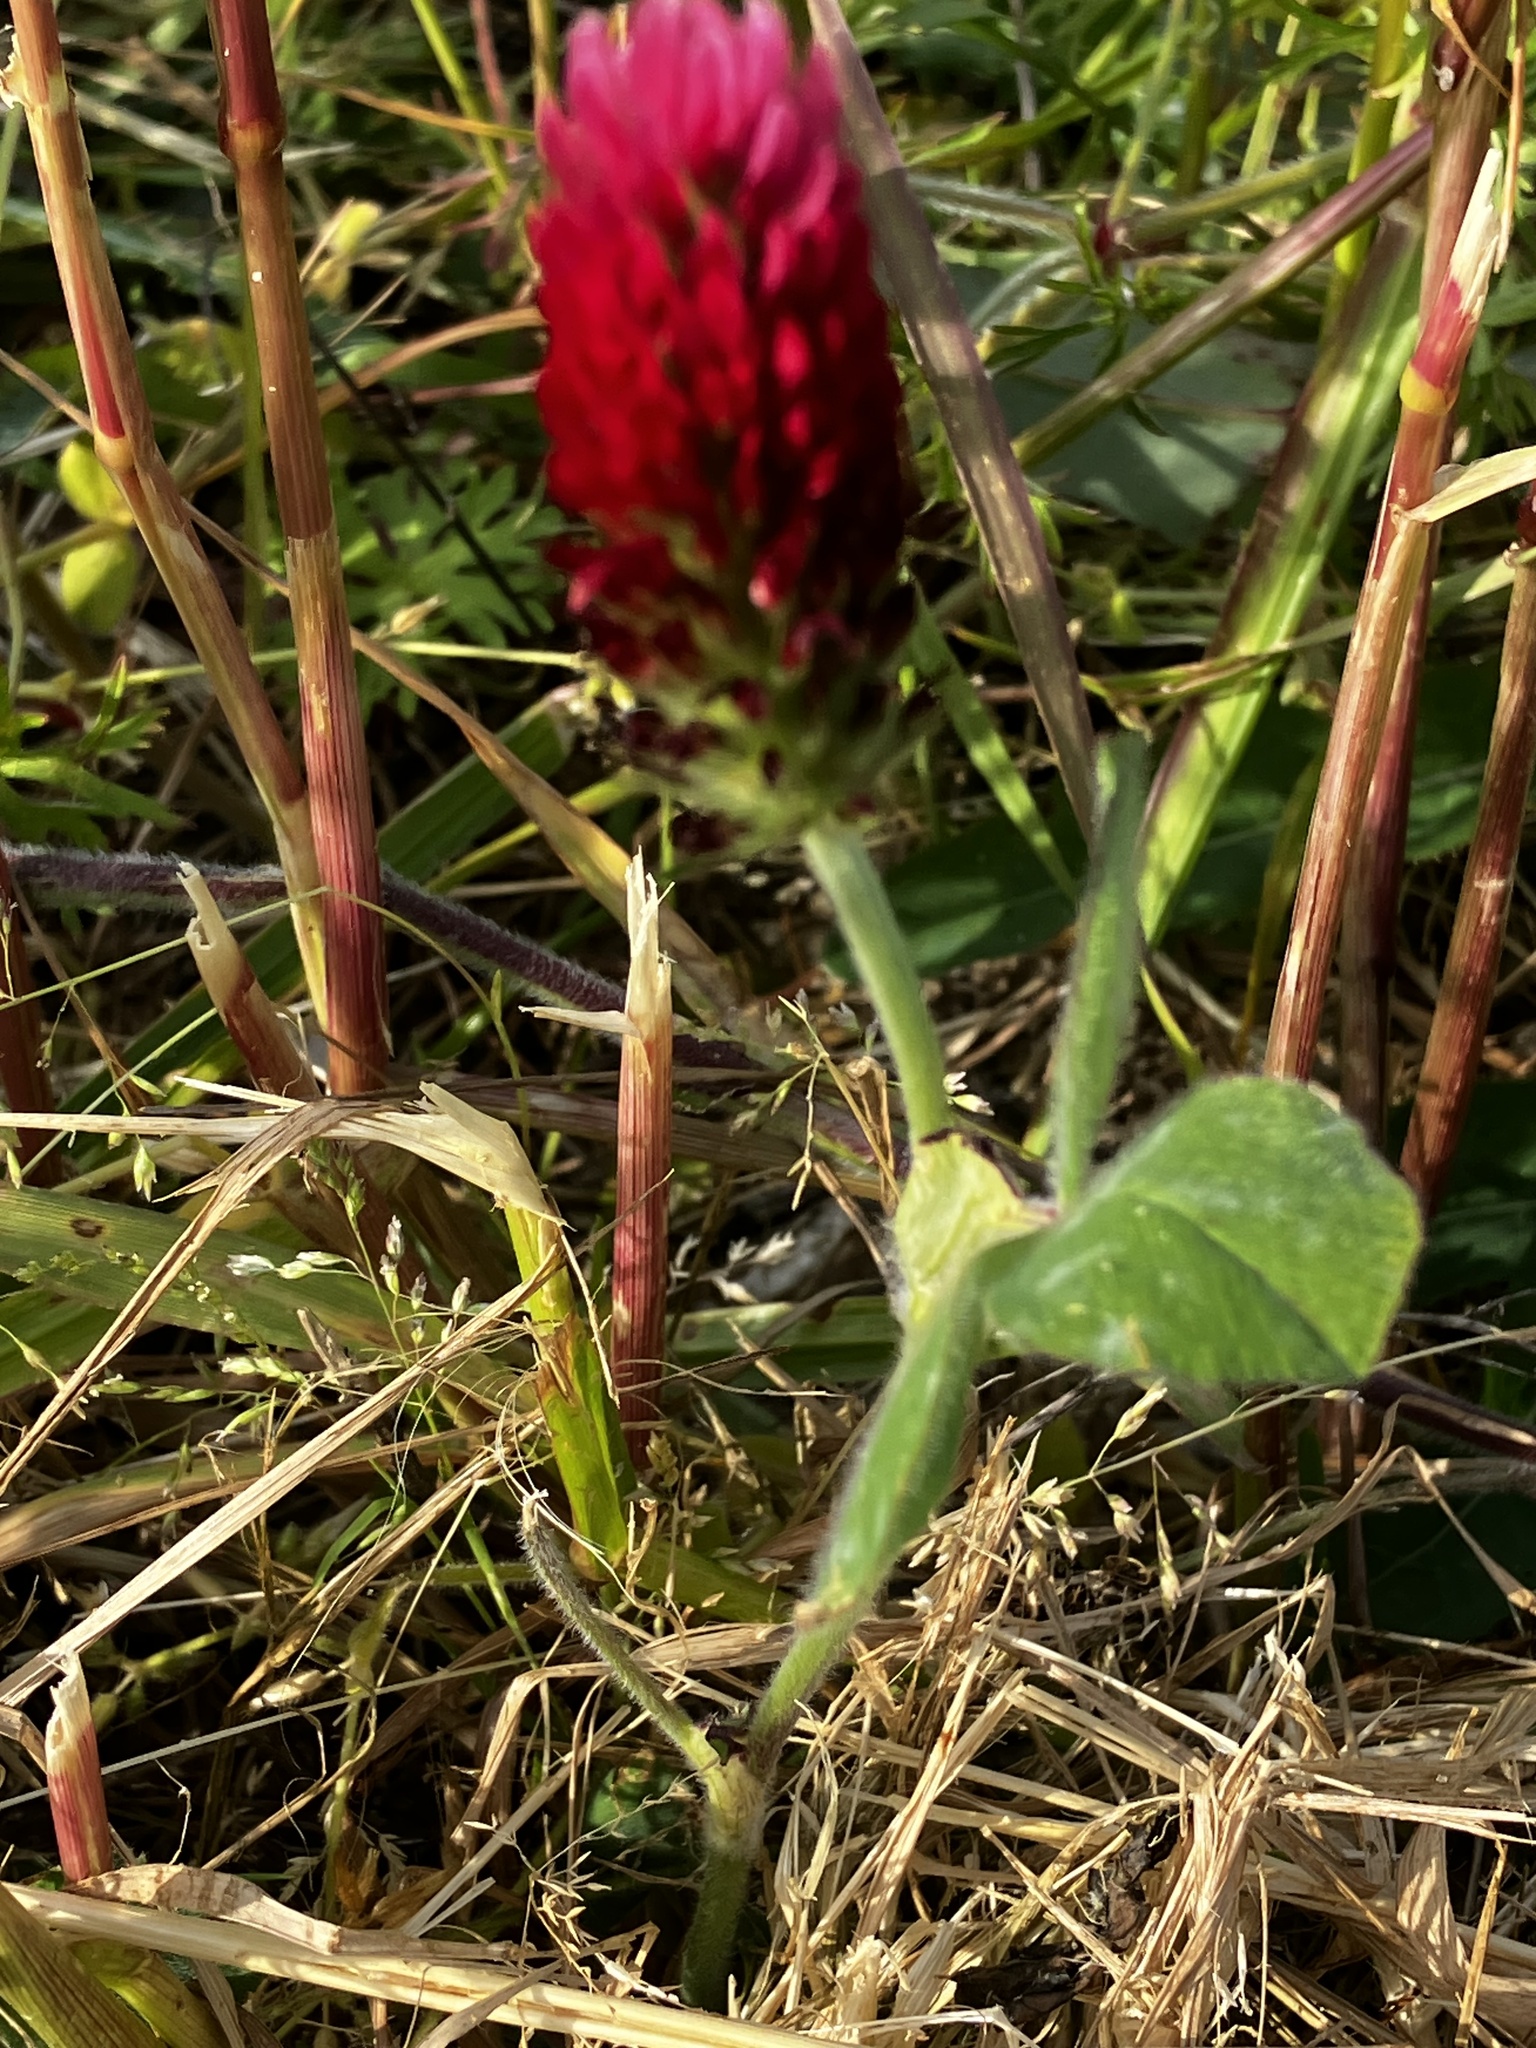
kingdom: Plantae
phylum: Tracheophyta
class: Magnoliopsida
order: Fabales
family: Fabaceae
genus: Trifolium
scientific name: Trifolium incarnatum
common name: Crimson clover
